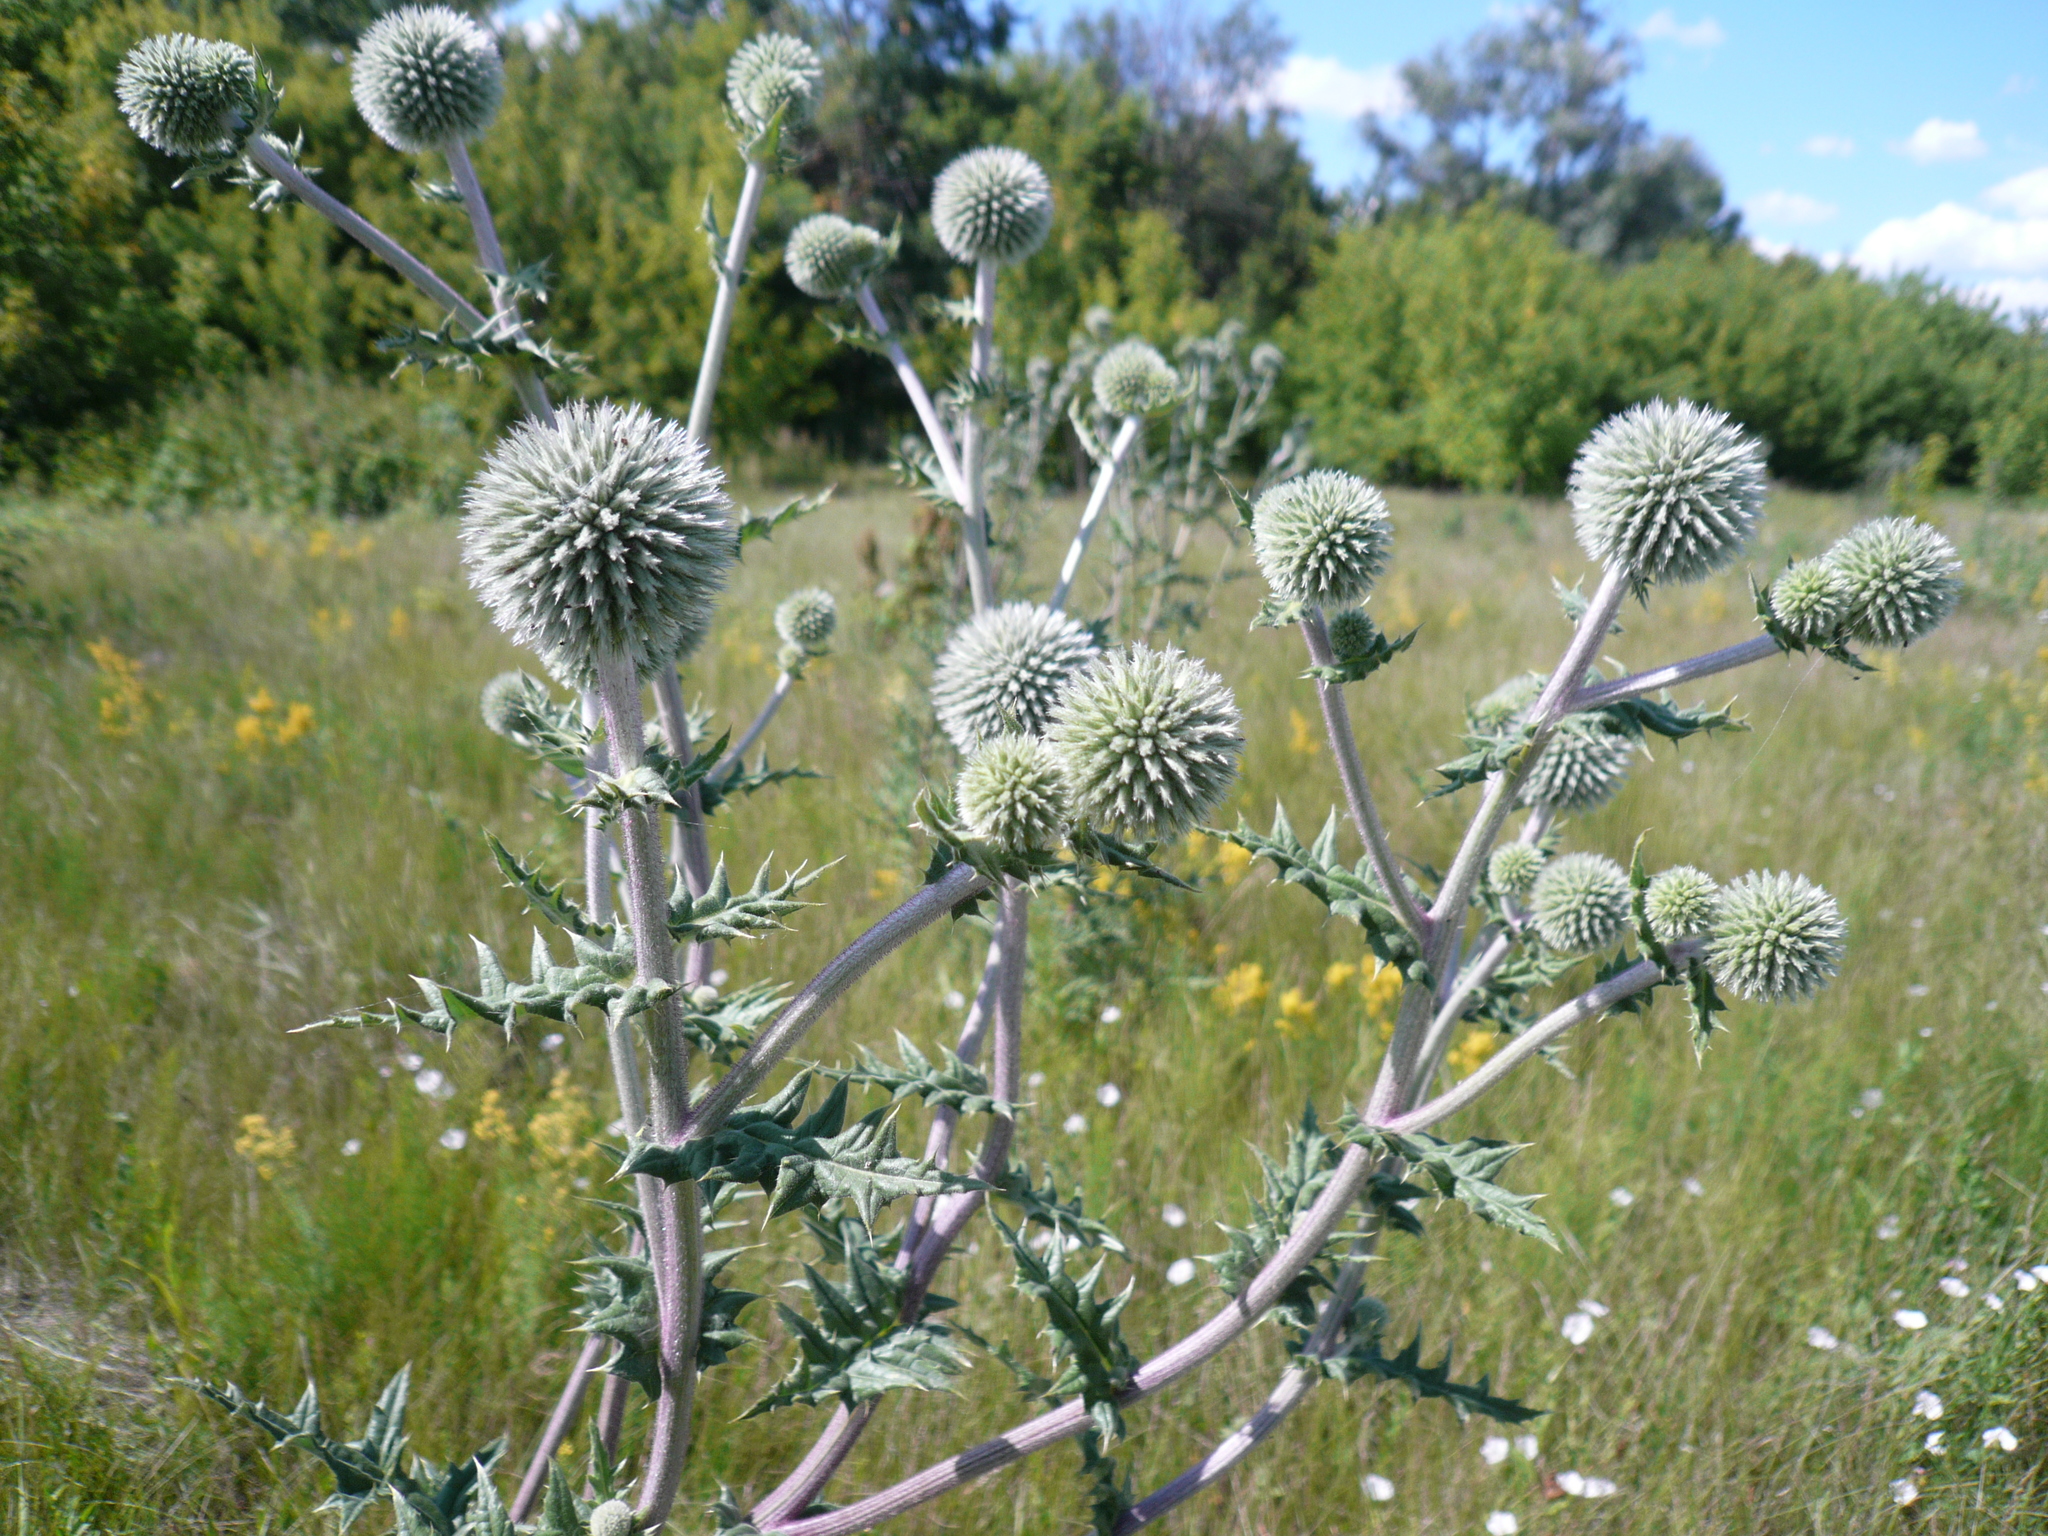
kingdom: Plantae
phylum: Tracheophyta
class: Magnoliopsida
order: Asterales
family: Asteraceae
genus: Echinops
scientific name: Echinops sphaerocephalus
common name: Glandular globe-thistle
